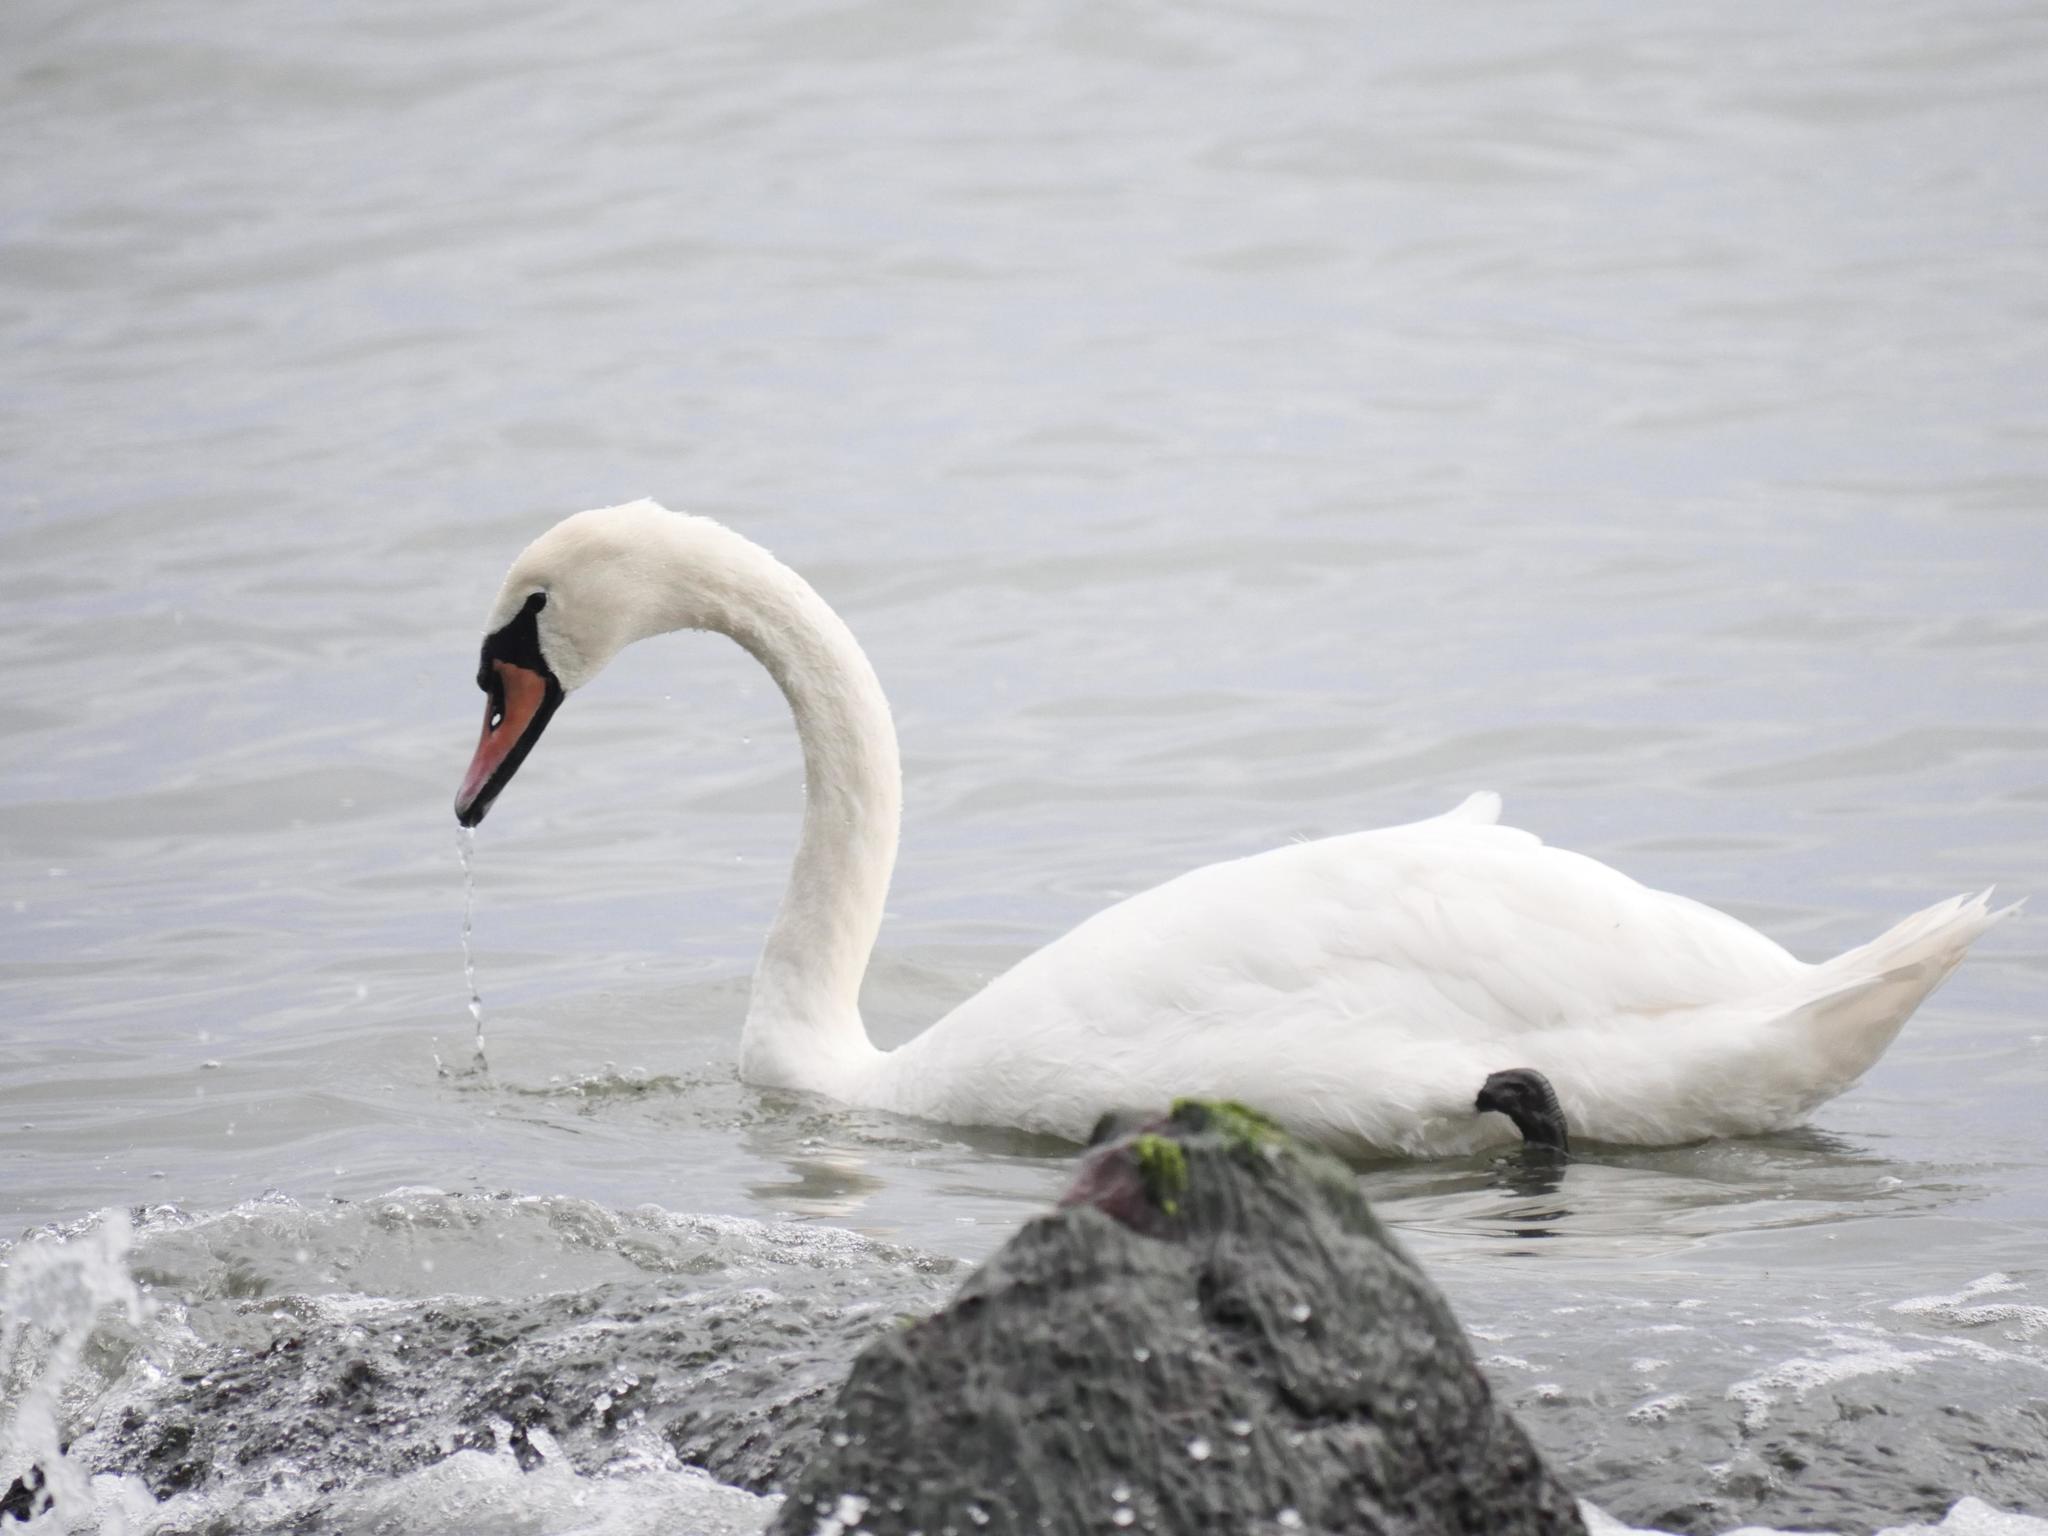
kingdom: Animalia
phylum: Chordata
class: Aves
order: Anseriformes
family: Anatidae
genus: Cygnus
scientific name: Cygnus olor
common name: Mute swan
